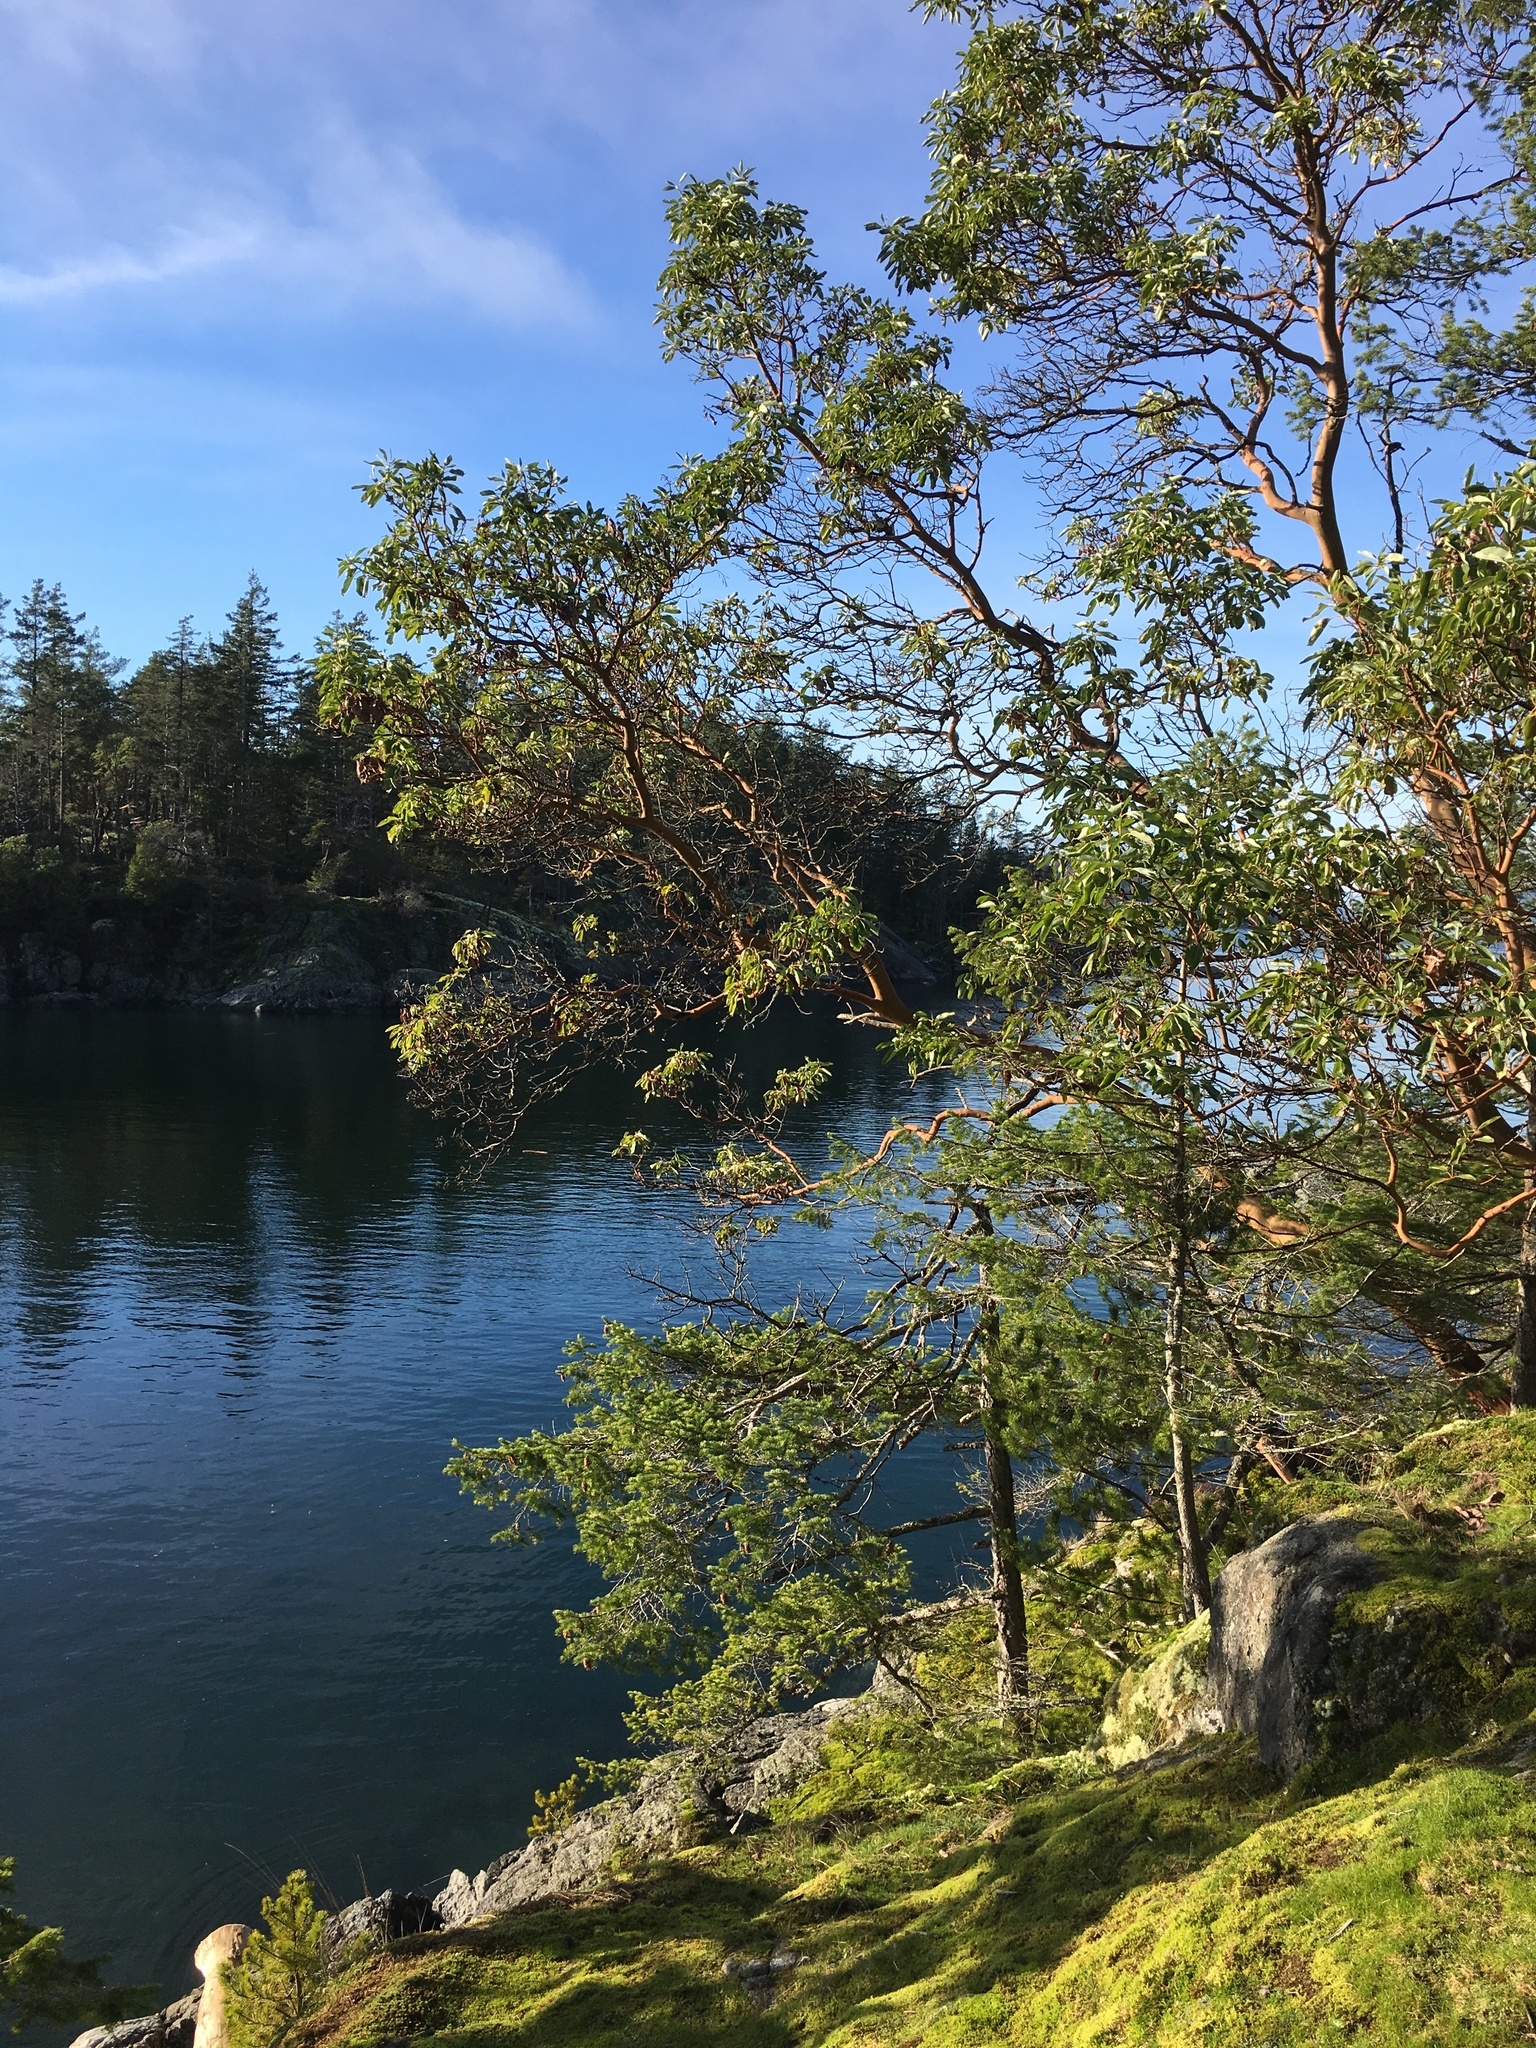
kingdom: Plantae
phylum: Tracheophyta
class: Magnoliopsida
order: Ericales
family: Ericaceae
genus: Arbutus
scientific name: Arbutus menziesii
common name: Pacific madrone
